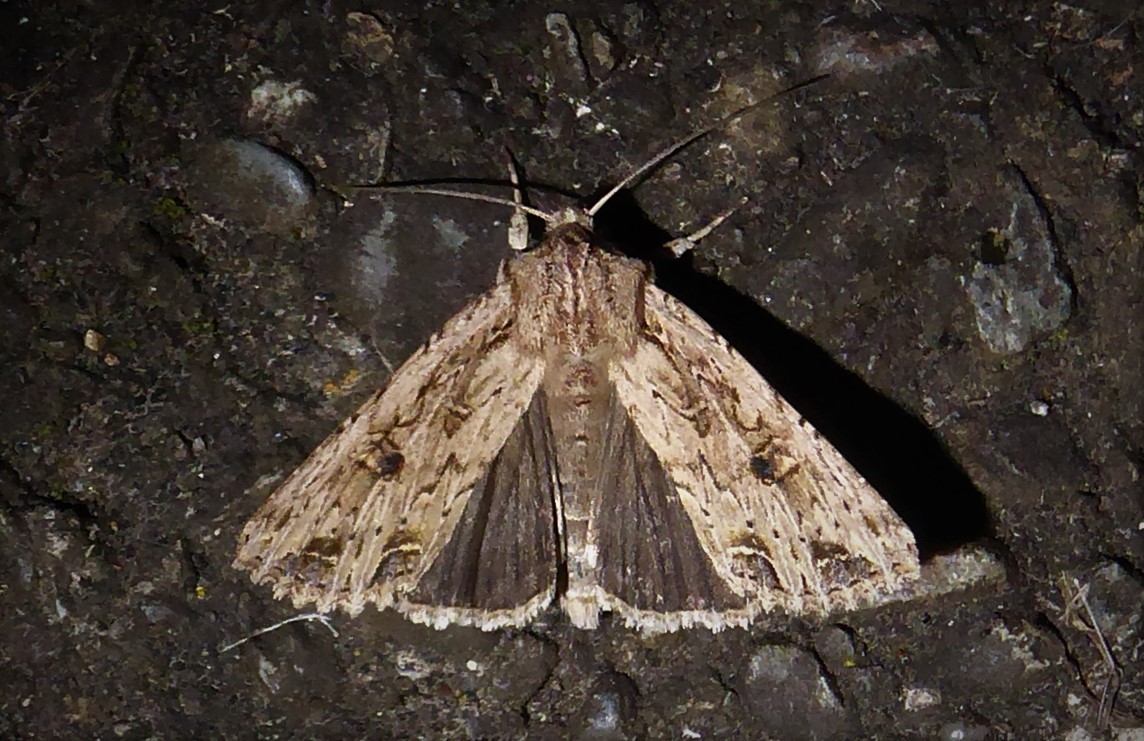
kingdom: Animalia
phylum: Arthropoda
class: Insecta
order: Lepidoptera
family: Noctuidae
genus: Ichneutica
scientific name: Ichneutica lignana
